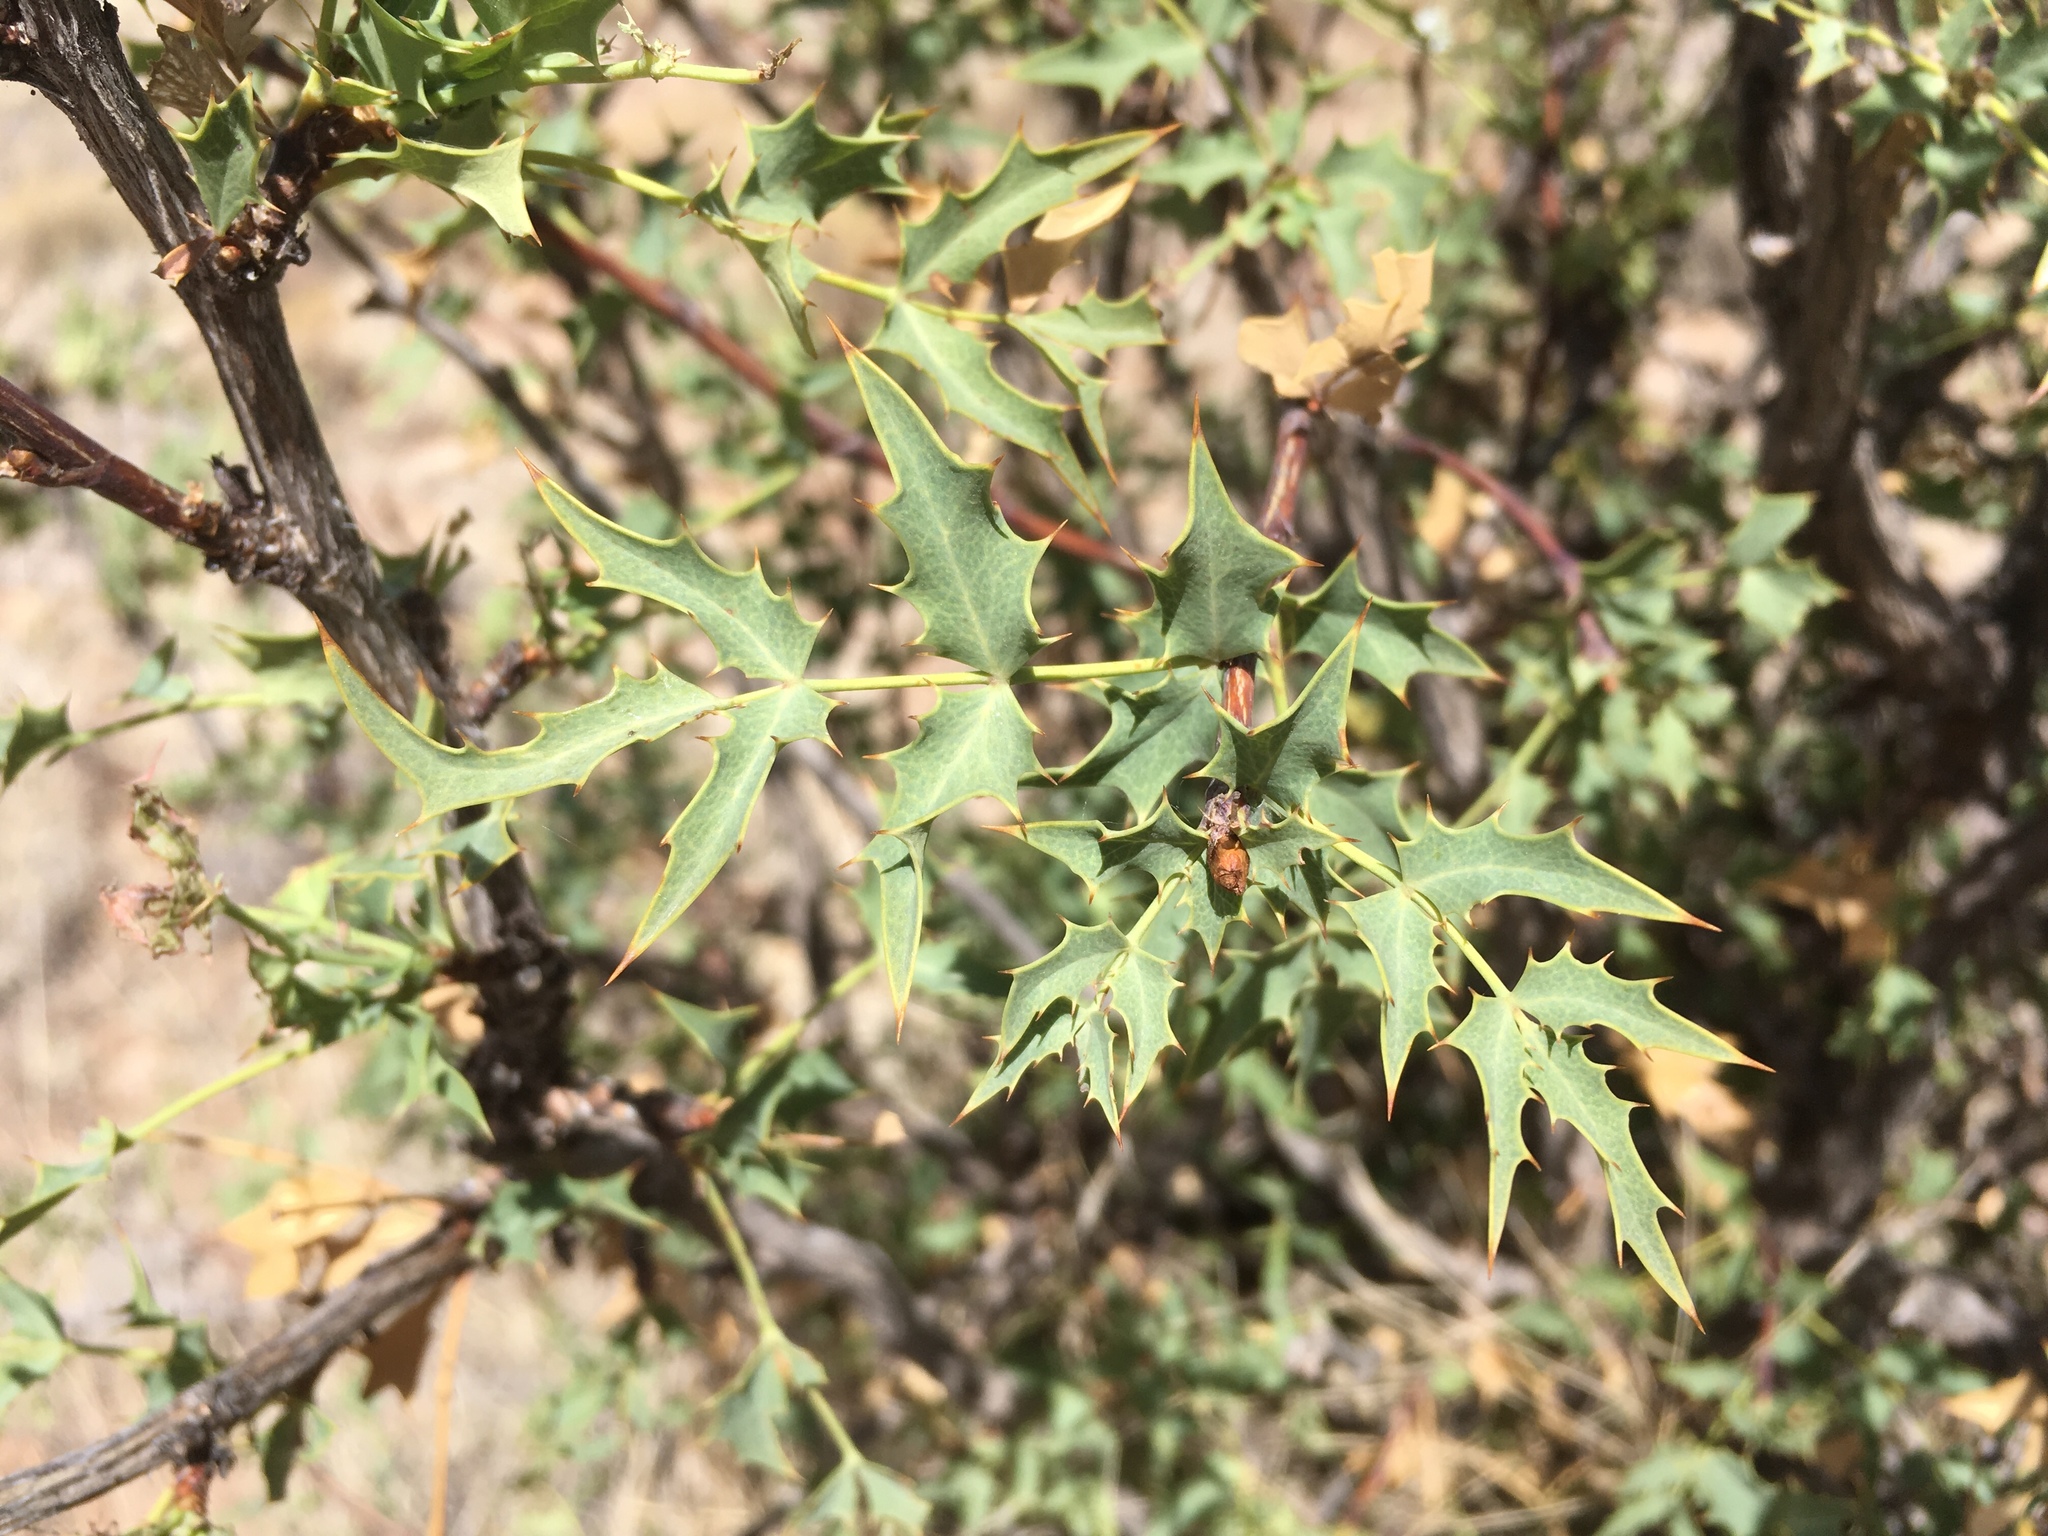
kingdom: Plantae
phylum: Tracheophyta
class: Magnoliopsida
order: Ranunculales
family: Berberidaceae
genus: Alloberberis
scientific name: Alloberberis haematocarpa
